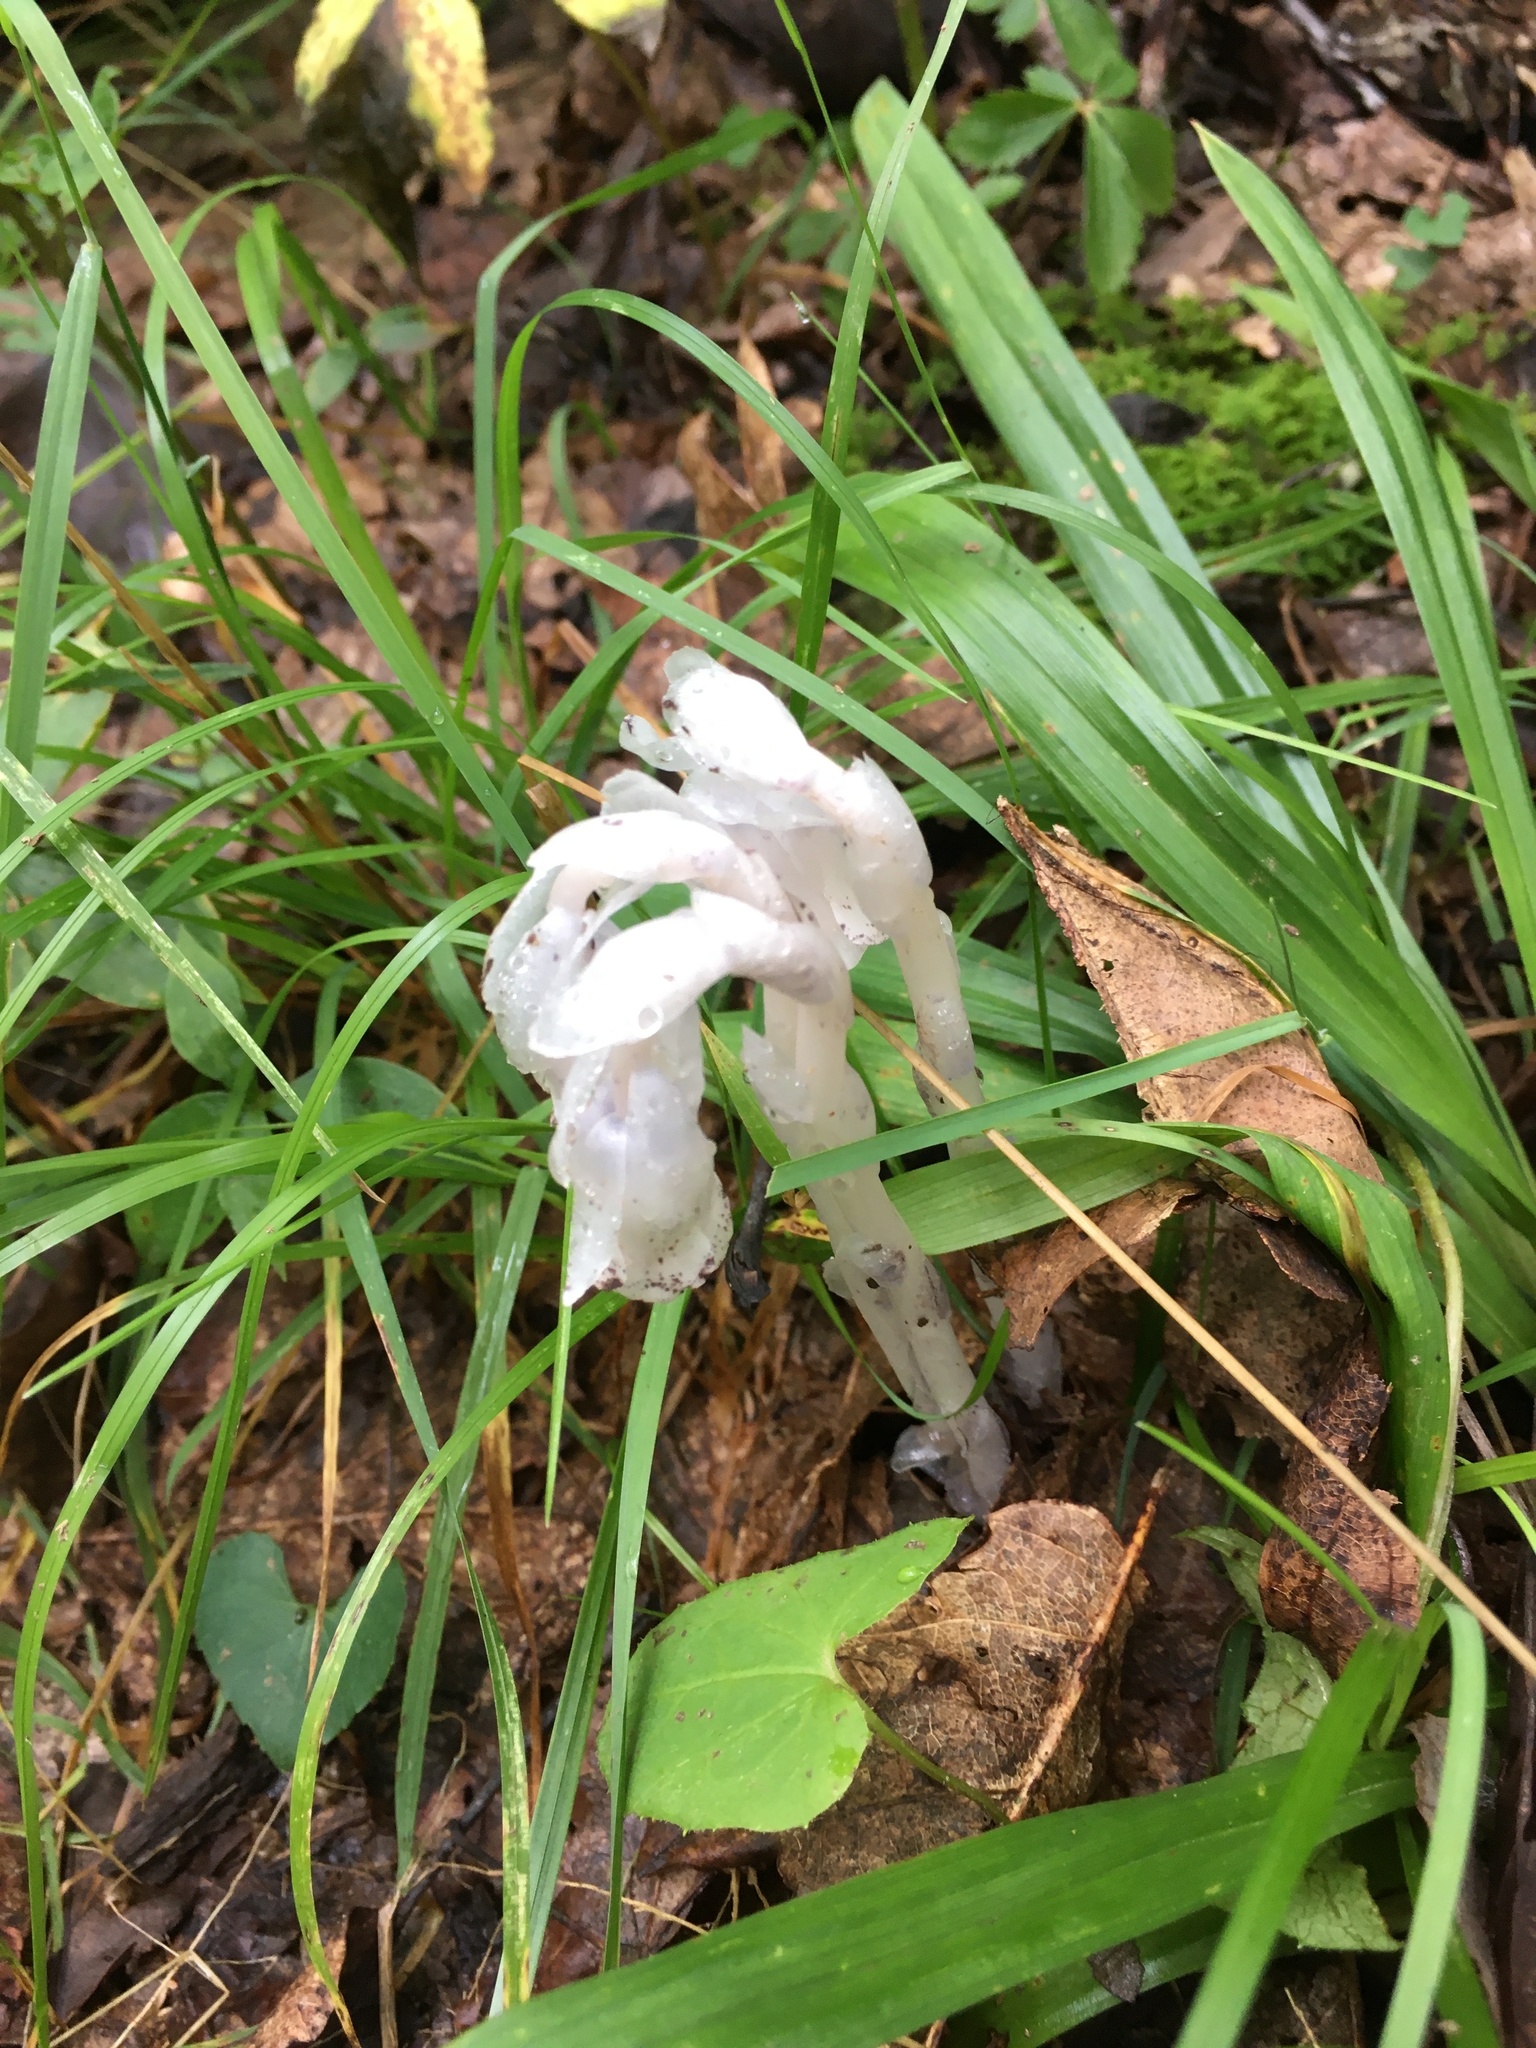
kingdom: Plantae
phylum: Tracheophyta
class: Magnoliopsida
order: Ericales
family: Ericaceae
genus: Monotropa
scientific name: Monotropa uniflora
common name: Convulsion root
